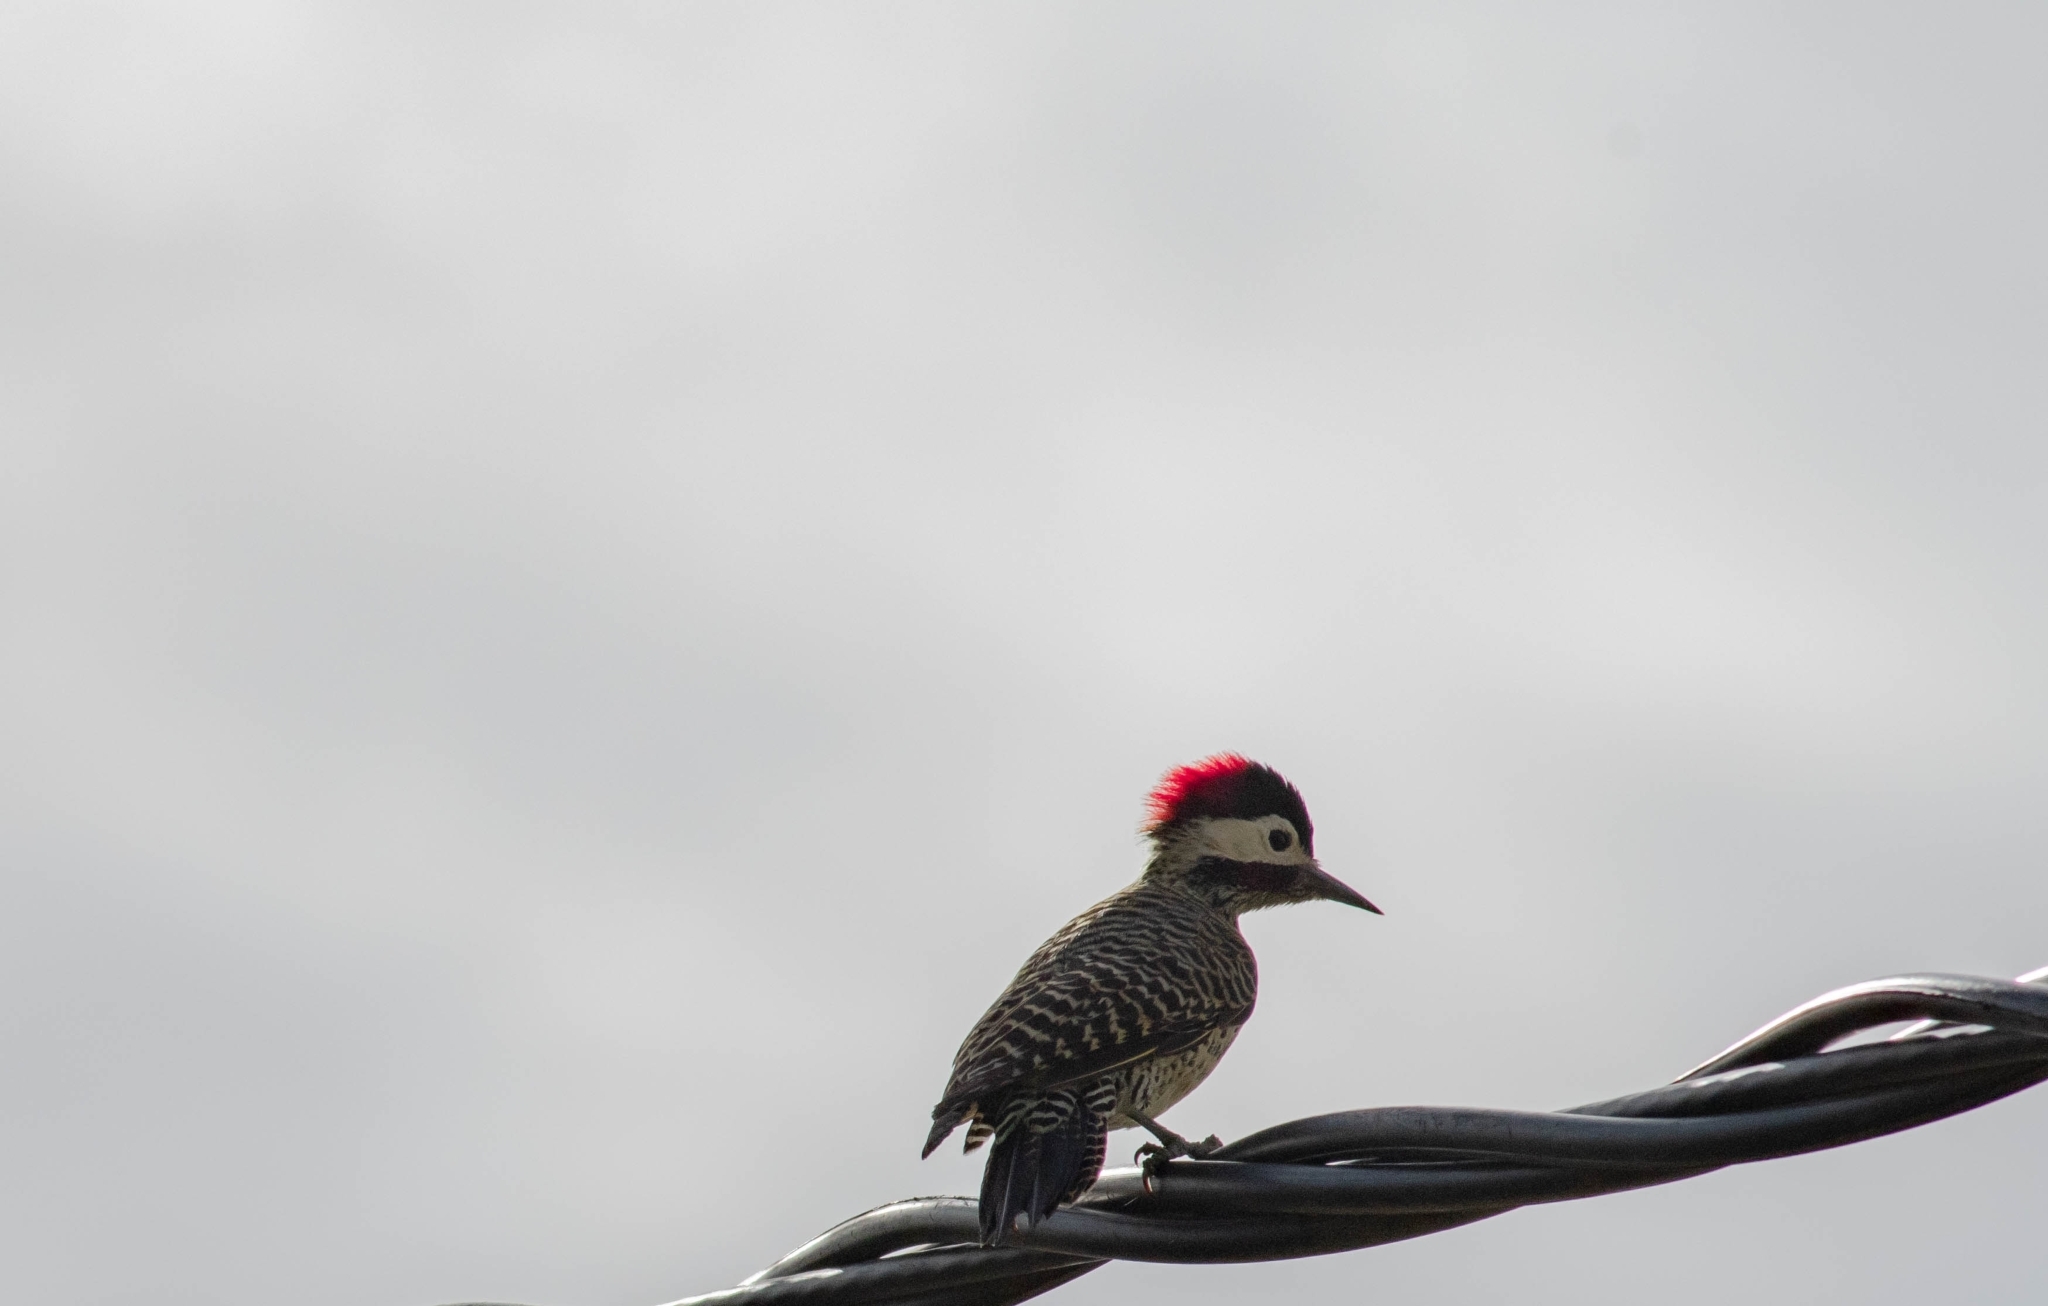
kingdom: Animalia
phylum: Chordata
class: Aves
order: Piciformes
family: Picidae
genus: Colaptes
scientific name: Colaptes melanochloros
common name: Green-barred woodpecker
